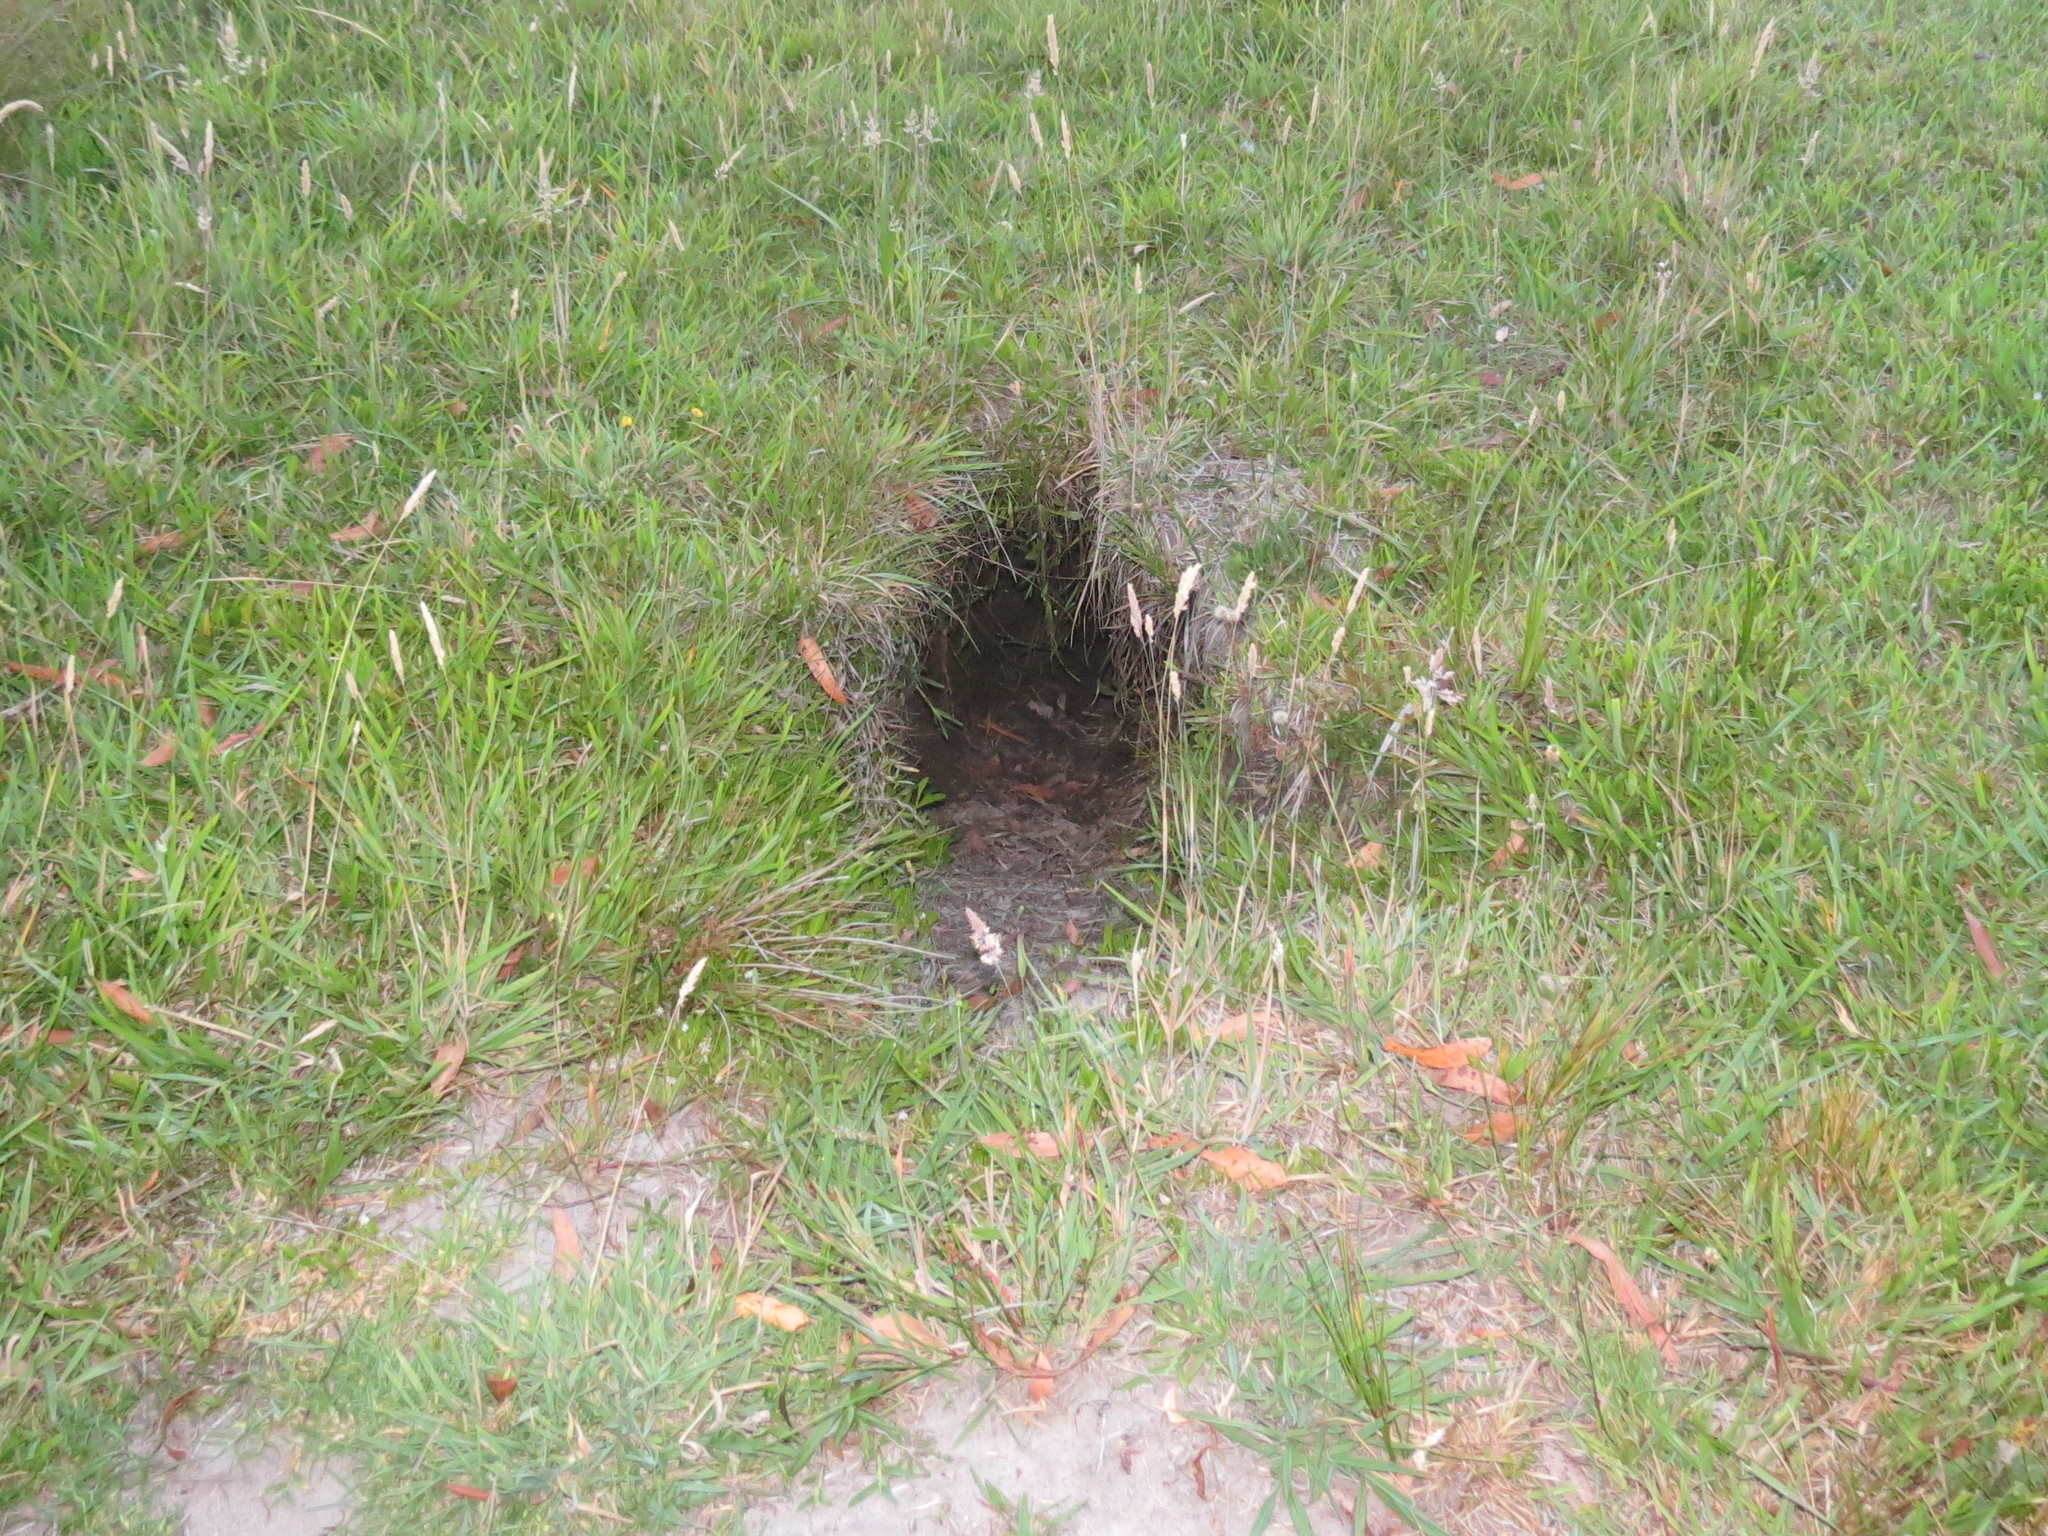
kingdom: Animalia
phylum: Chordata
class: Mammalia
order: Diprotodontia
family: Vombatidae
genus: Vombatus
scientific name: Vombatus ursinus
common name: Common wombat
